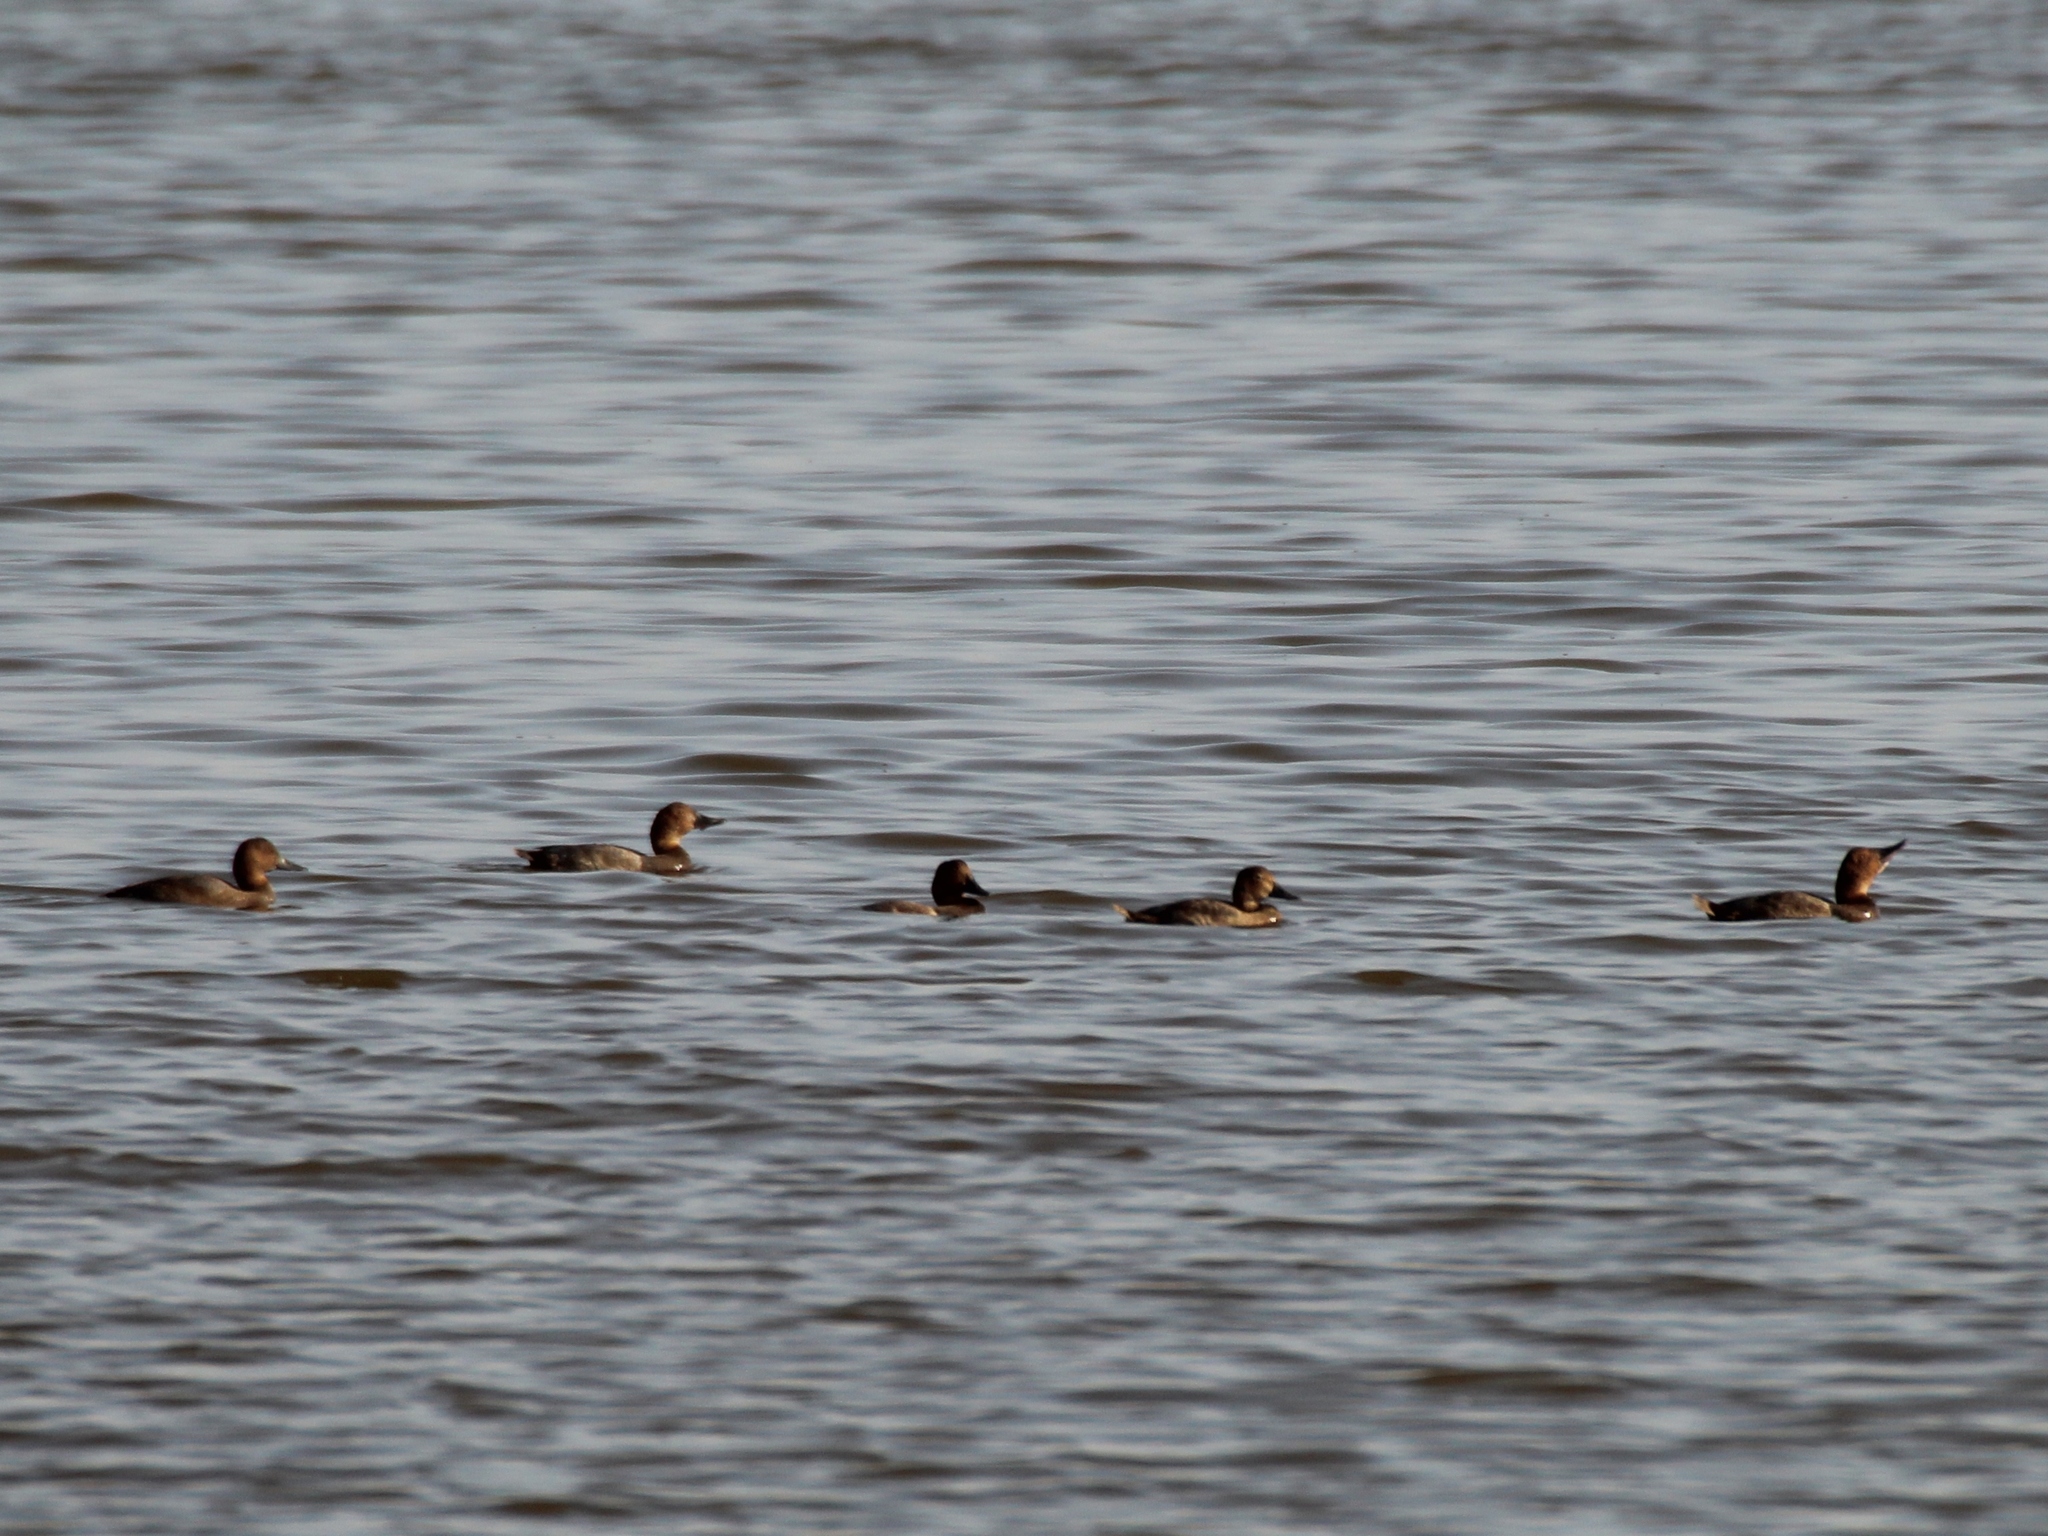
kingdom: Animalia
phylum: Chordata
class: Aves
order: Anseriformes
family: Anatidae
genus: Aythya
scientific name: Aythya ferina
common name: Common pochard
